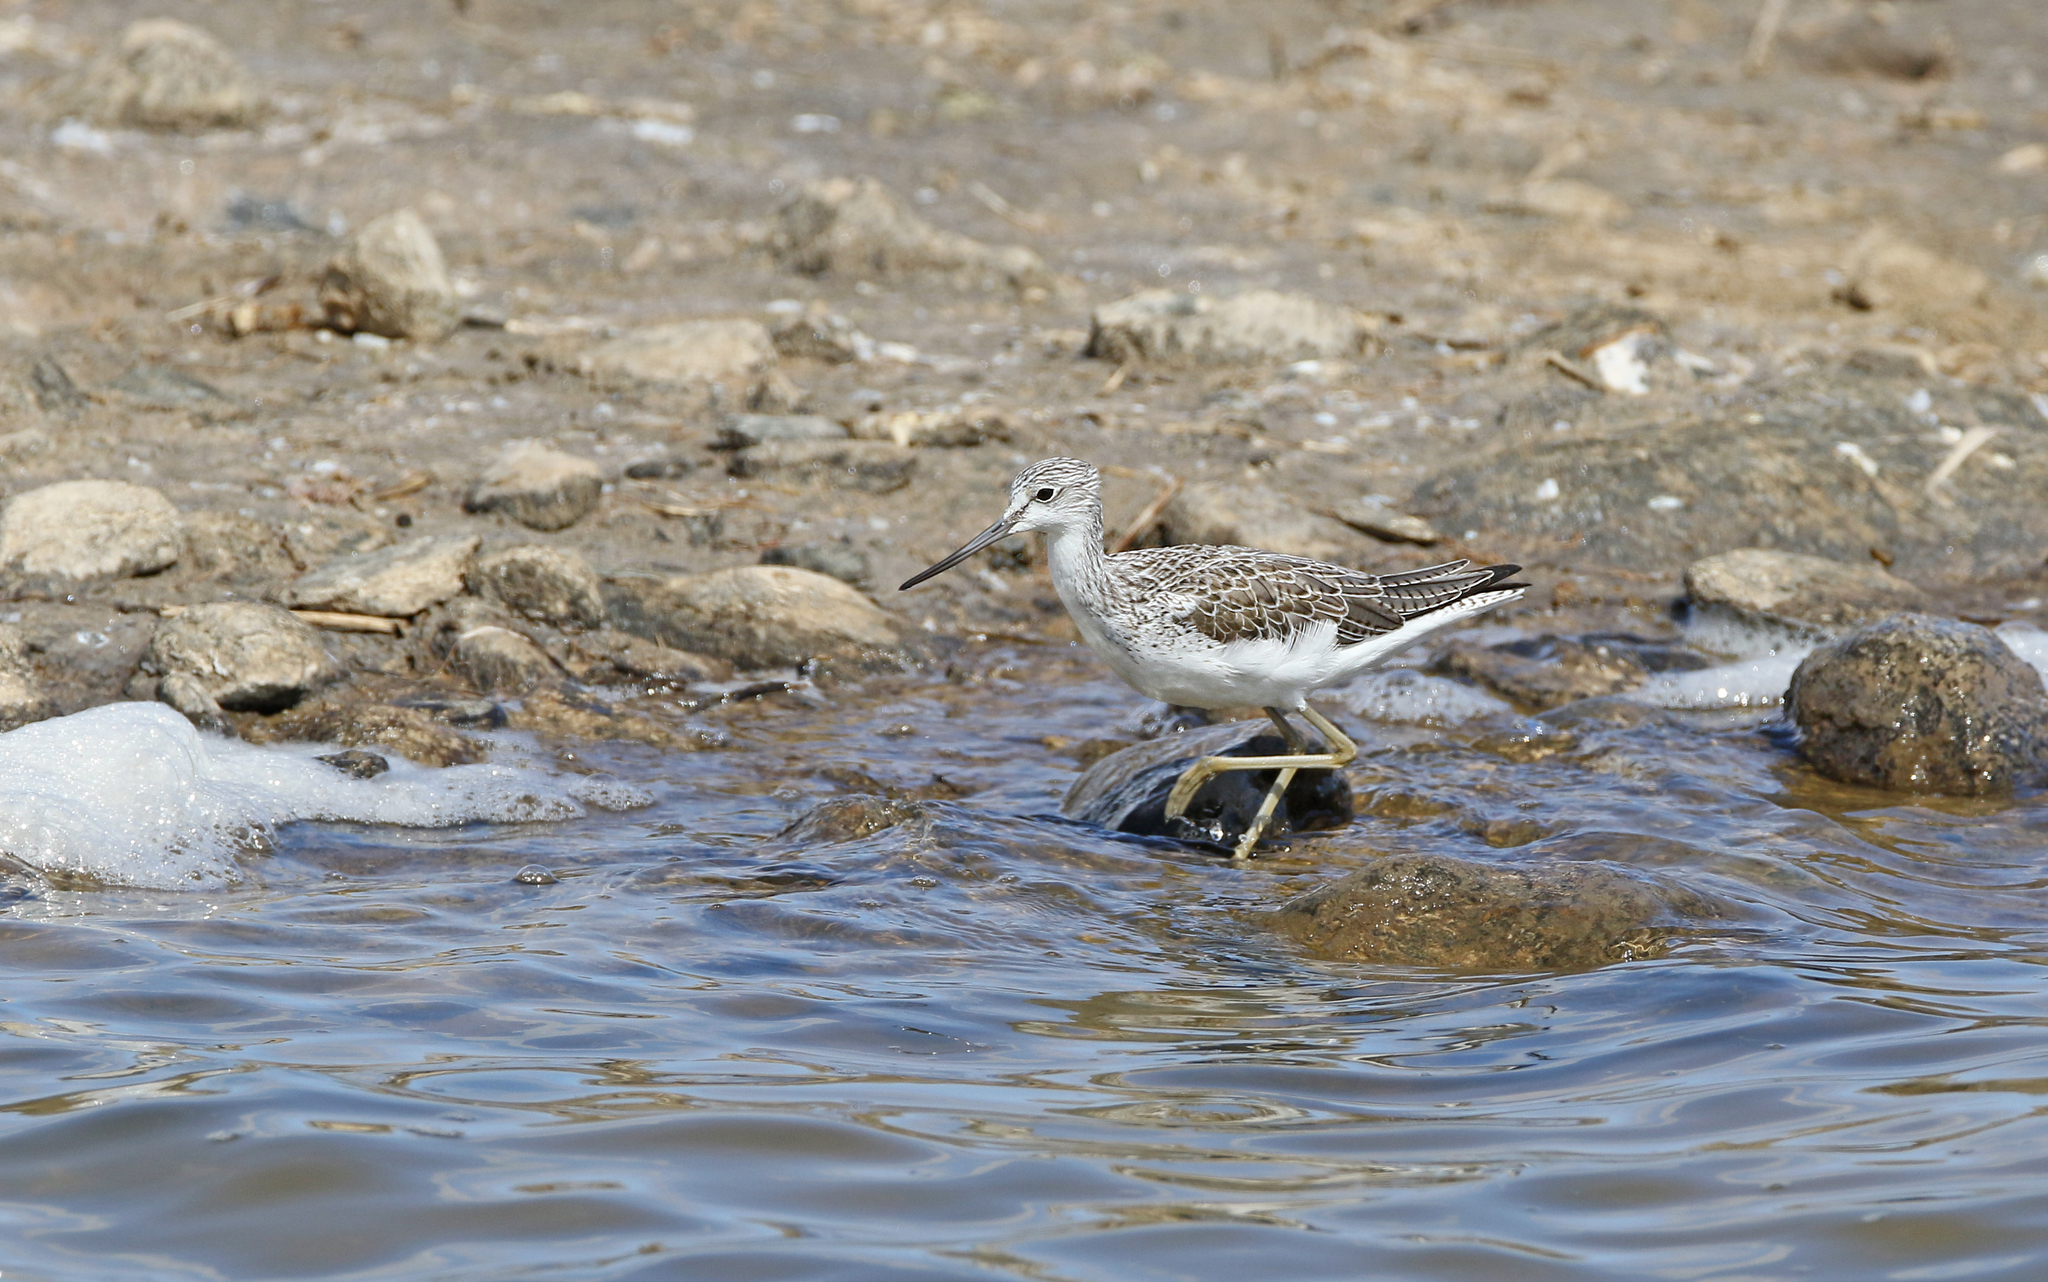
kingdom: Animalia
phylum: Chordata
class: Aves
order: Charadriiformes
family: Scolopacidae
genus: Tringa
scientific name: Tringa nebularia
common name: Common greenshank
